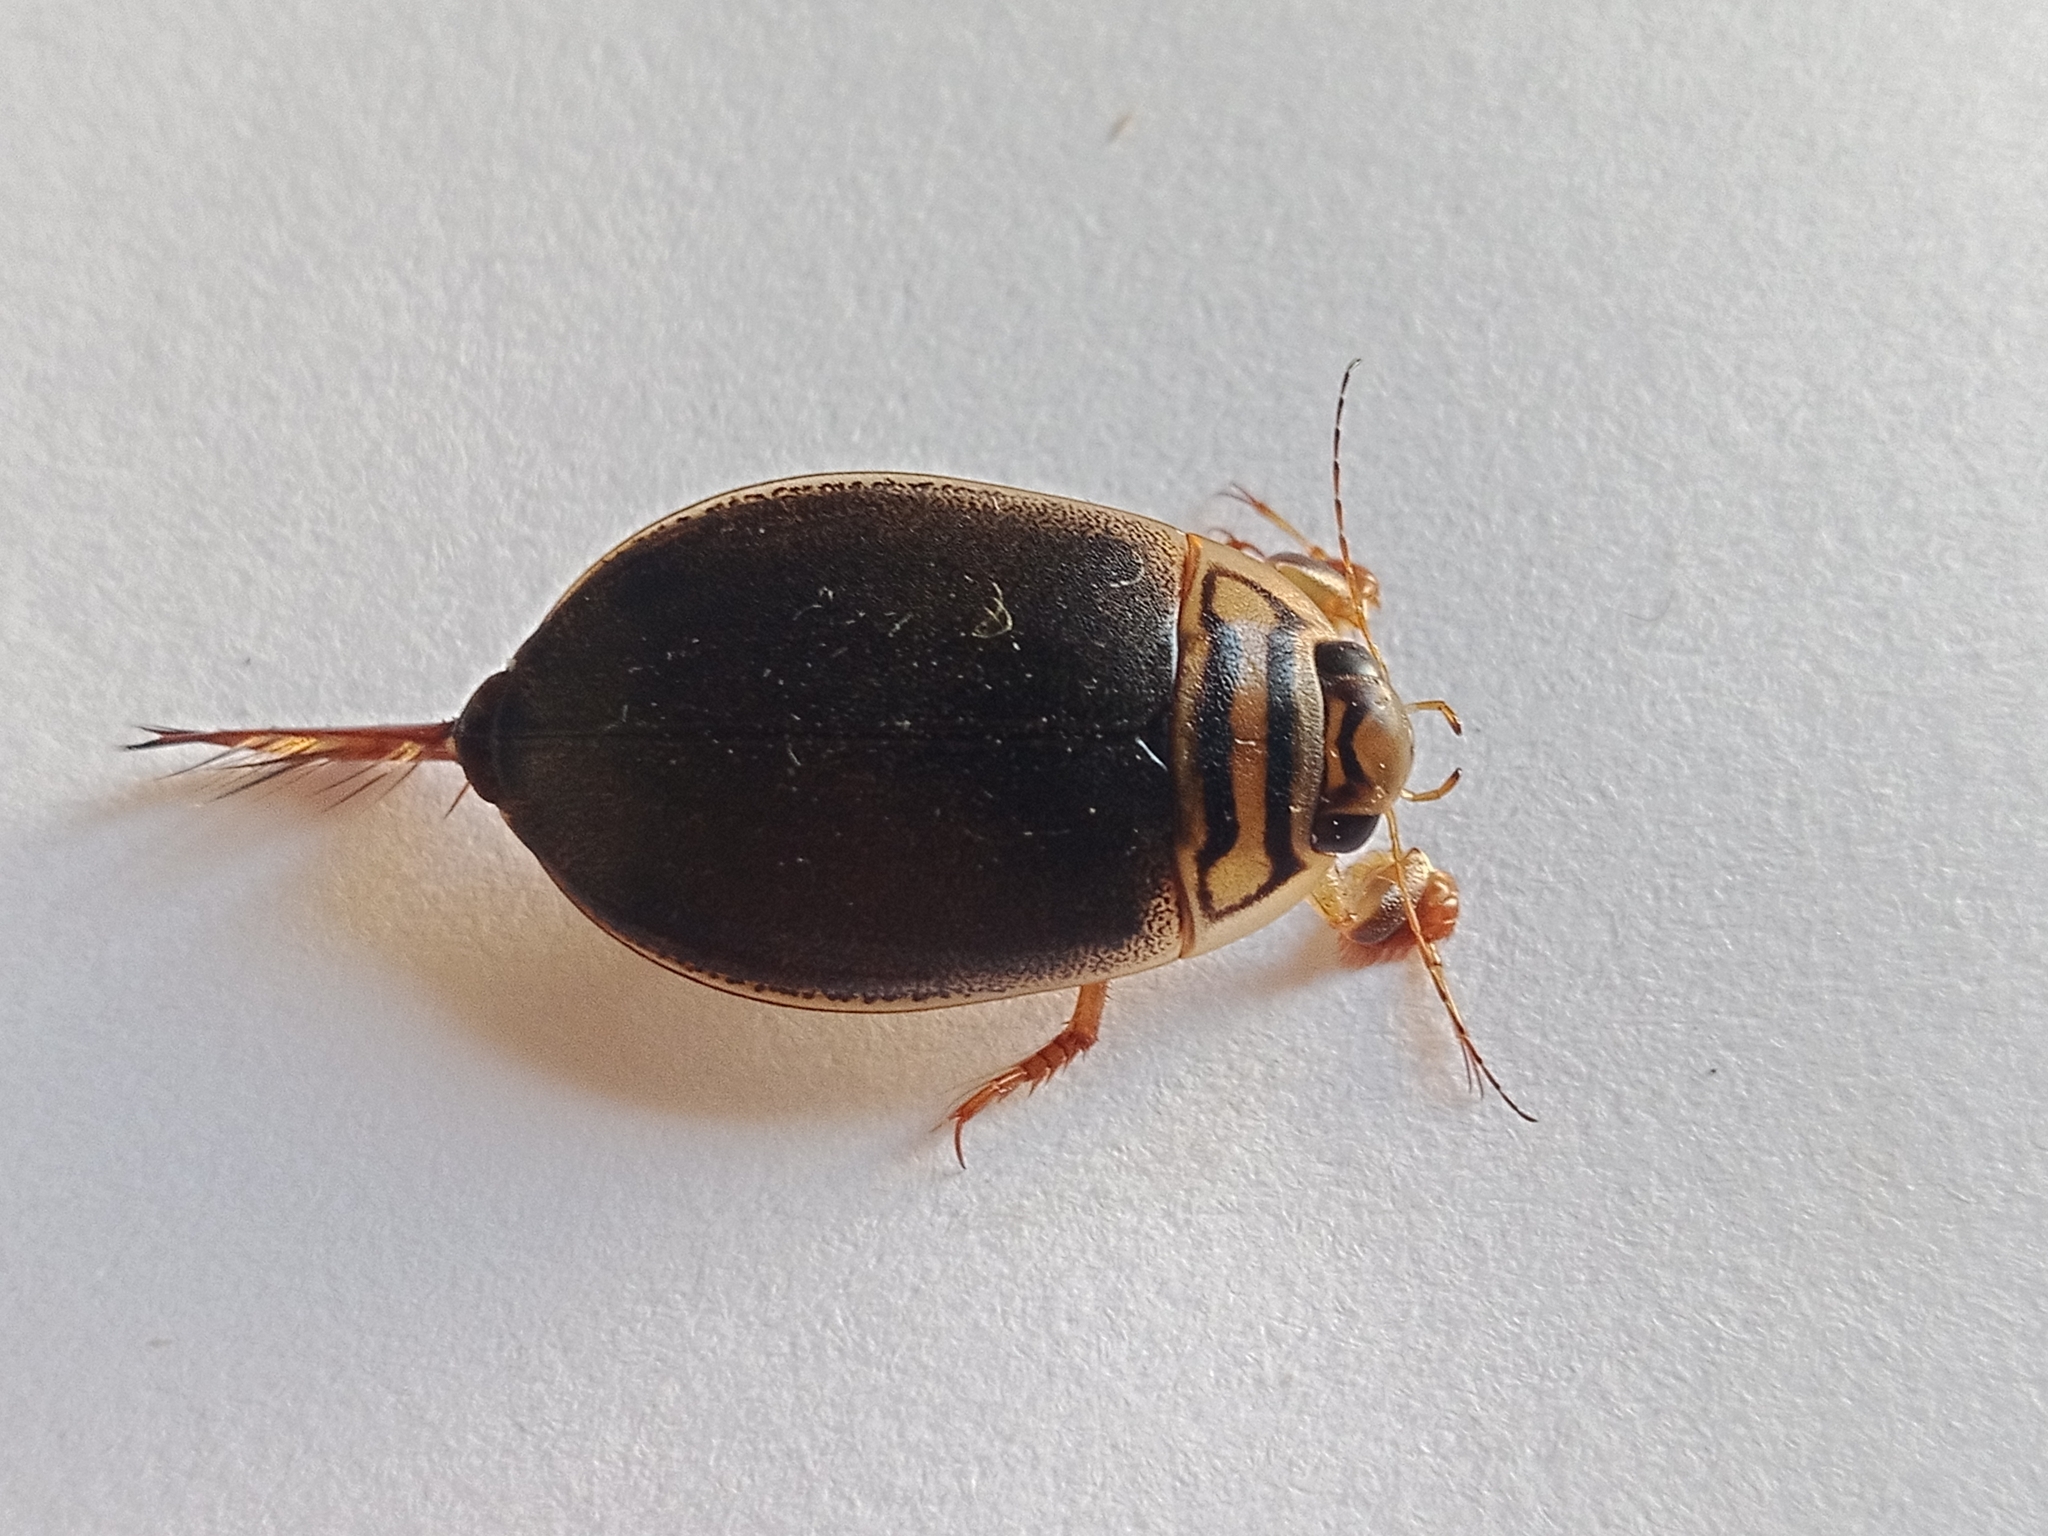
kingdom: Animalia
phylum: Arthropoda
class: Insecta
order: Coleoptera
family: Dytiscidae
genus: Acilius
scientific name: Acilius canaliculatus
